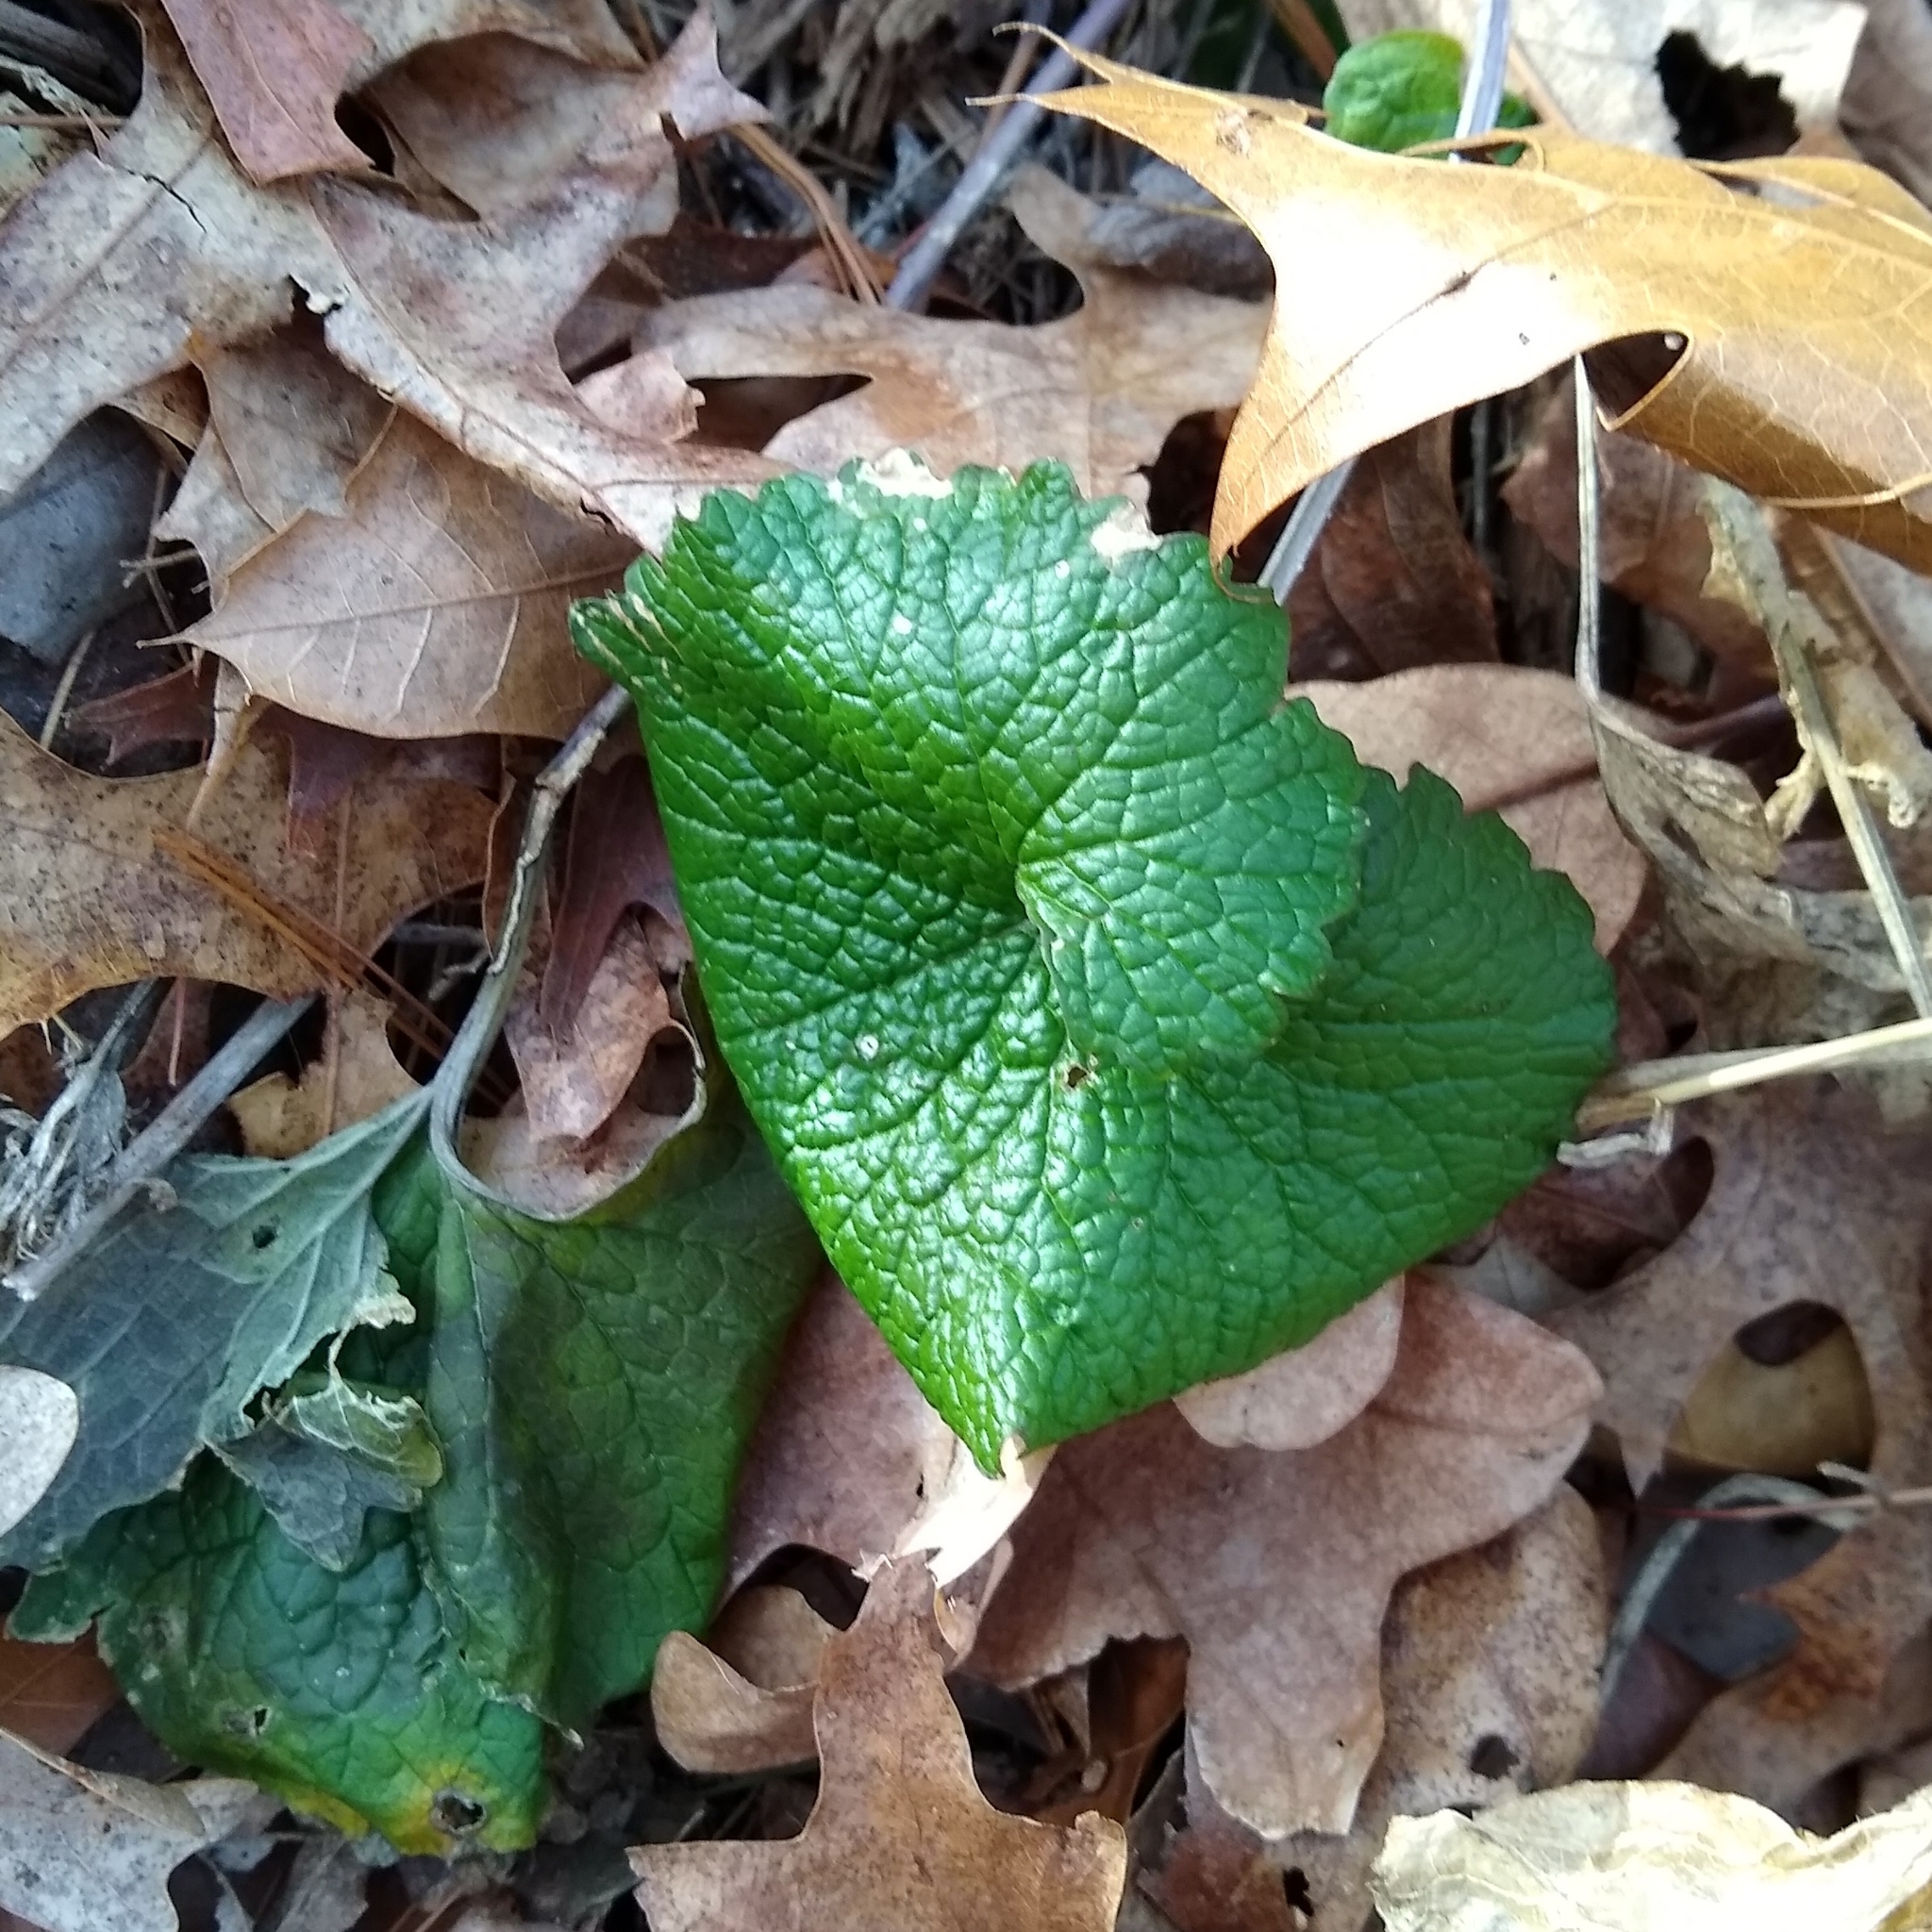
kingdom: Plantae
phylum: Tracheophyta
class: Magnoliopsida
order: Brassicales
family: Brassicaceae
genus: Alliaria
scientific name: Alliaria petiolata
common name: Garlic mustard
